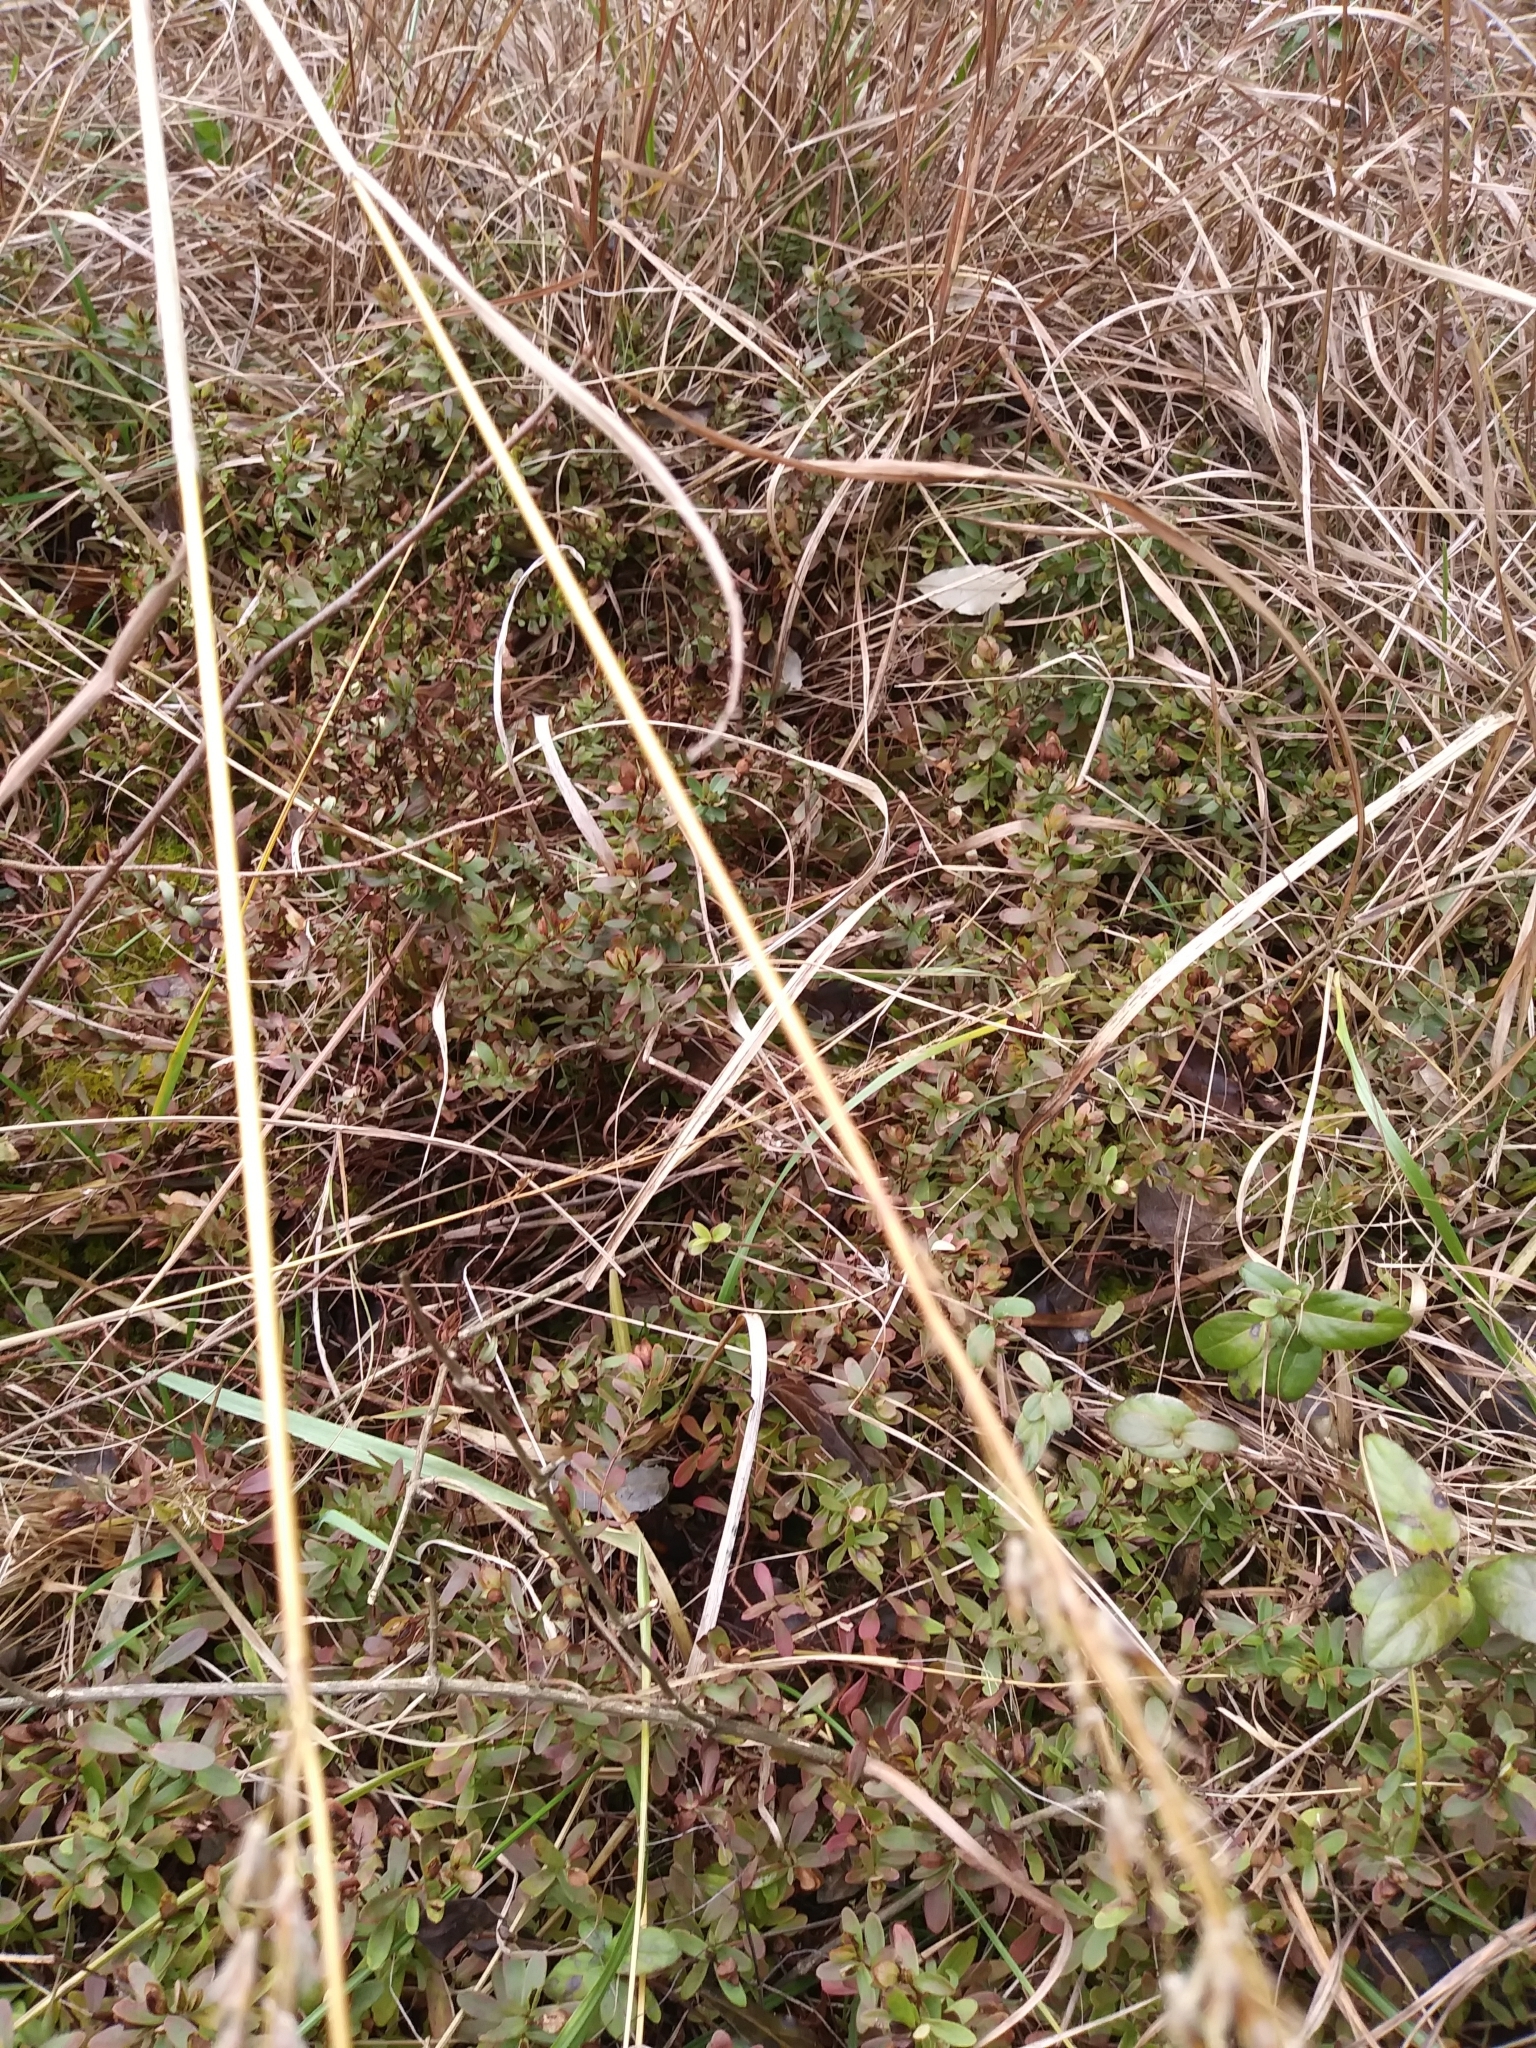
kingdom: Plantae
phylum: Tracheophyta
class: Magnoliopsida
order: Malpighiales
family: Hypericaceae
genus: Hypericum
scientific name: Hypericum hypericoides
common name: St. andrew's cross
